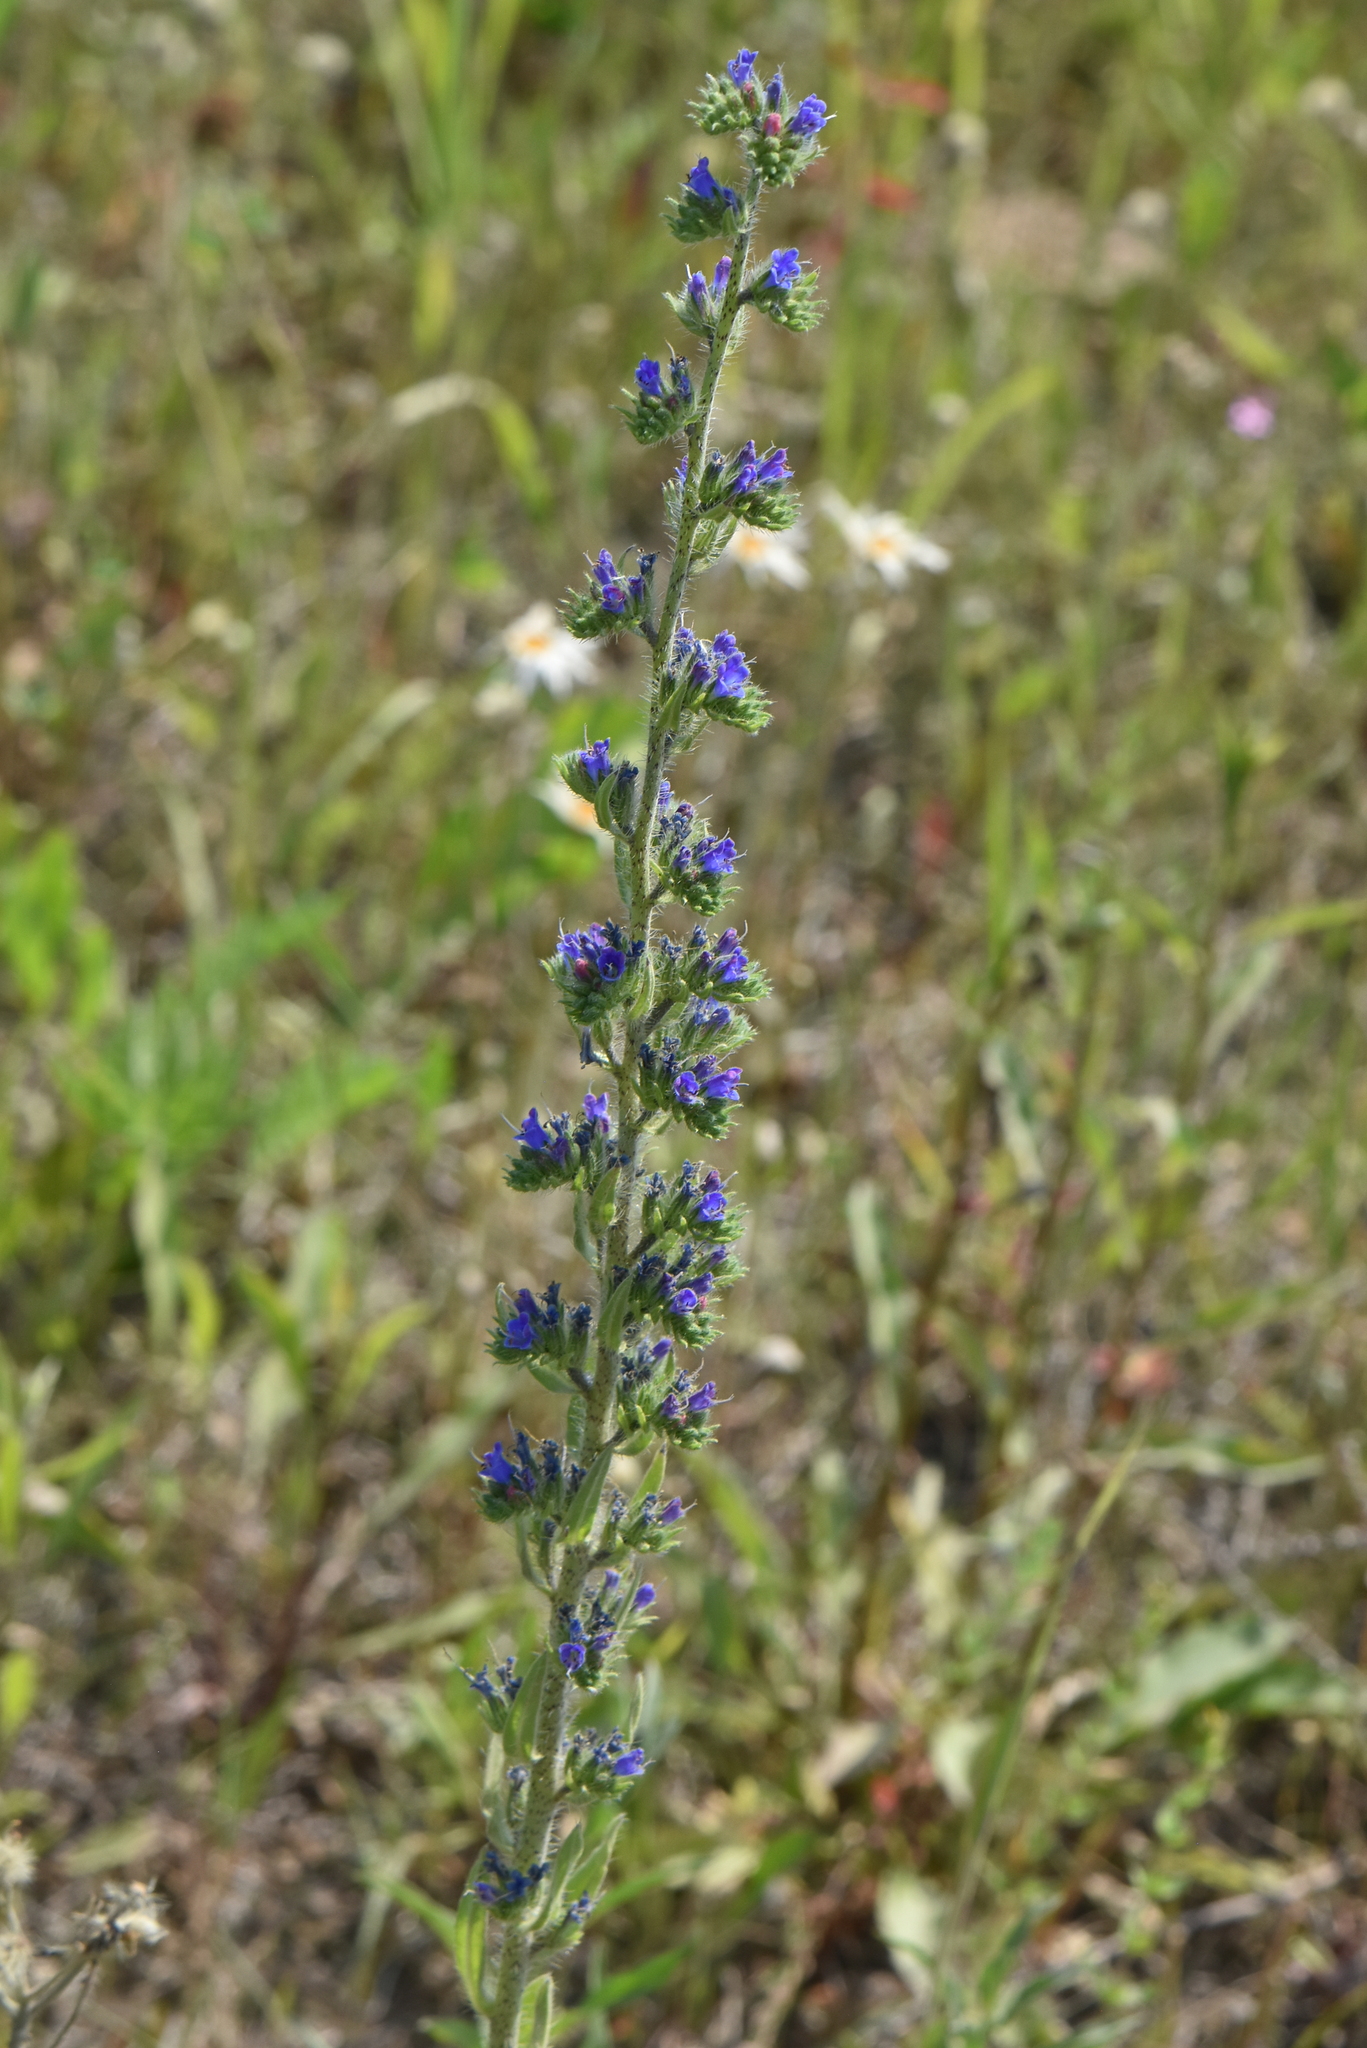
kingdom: Plantae
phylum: Tracheophyta
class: Magnoliopsida
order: Boraginales
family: Boraginaceae
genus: Echium
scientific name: Echium vulgare
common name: Common viper's bugloss
